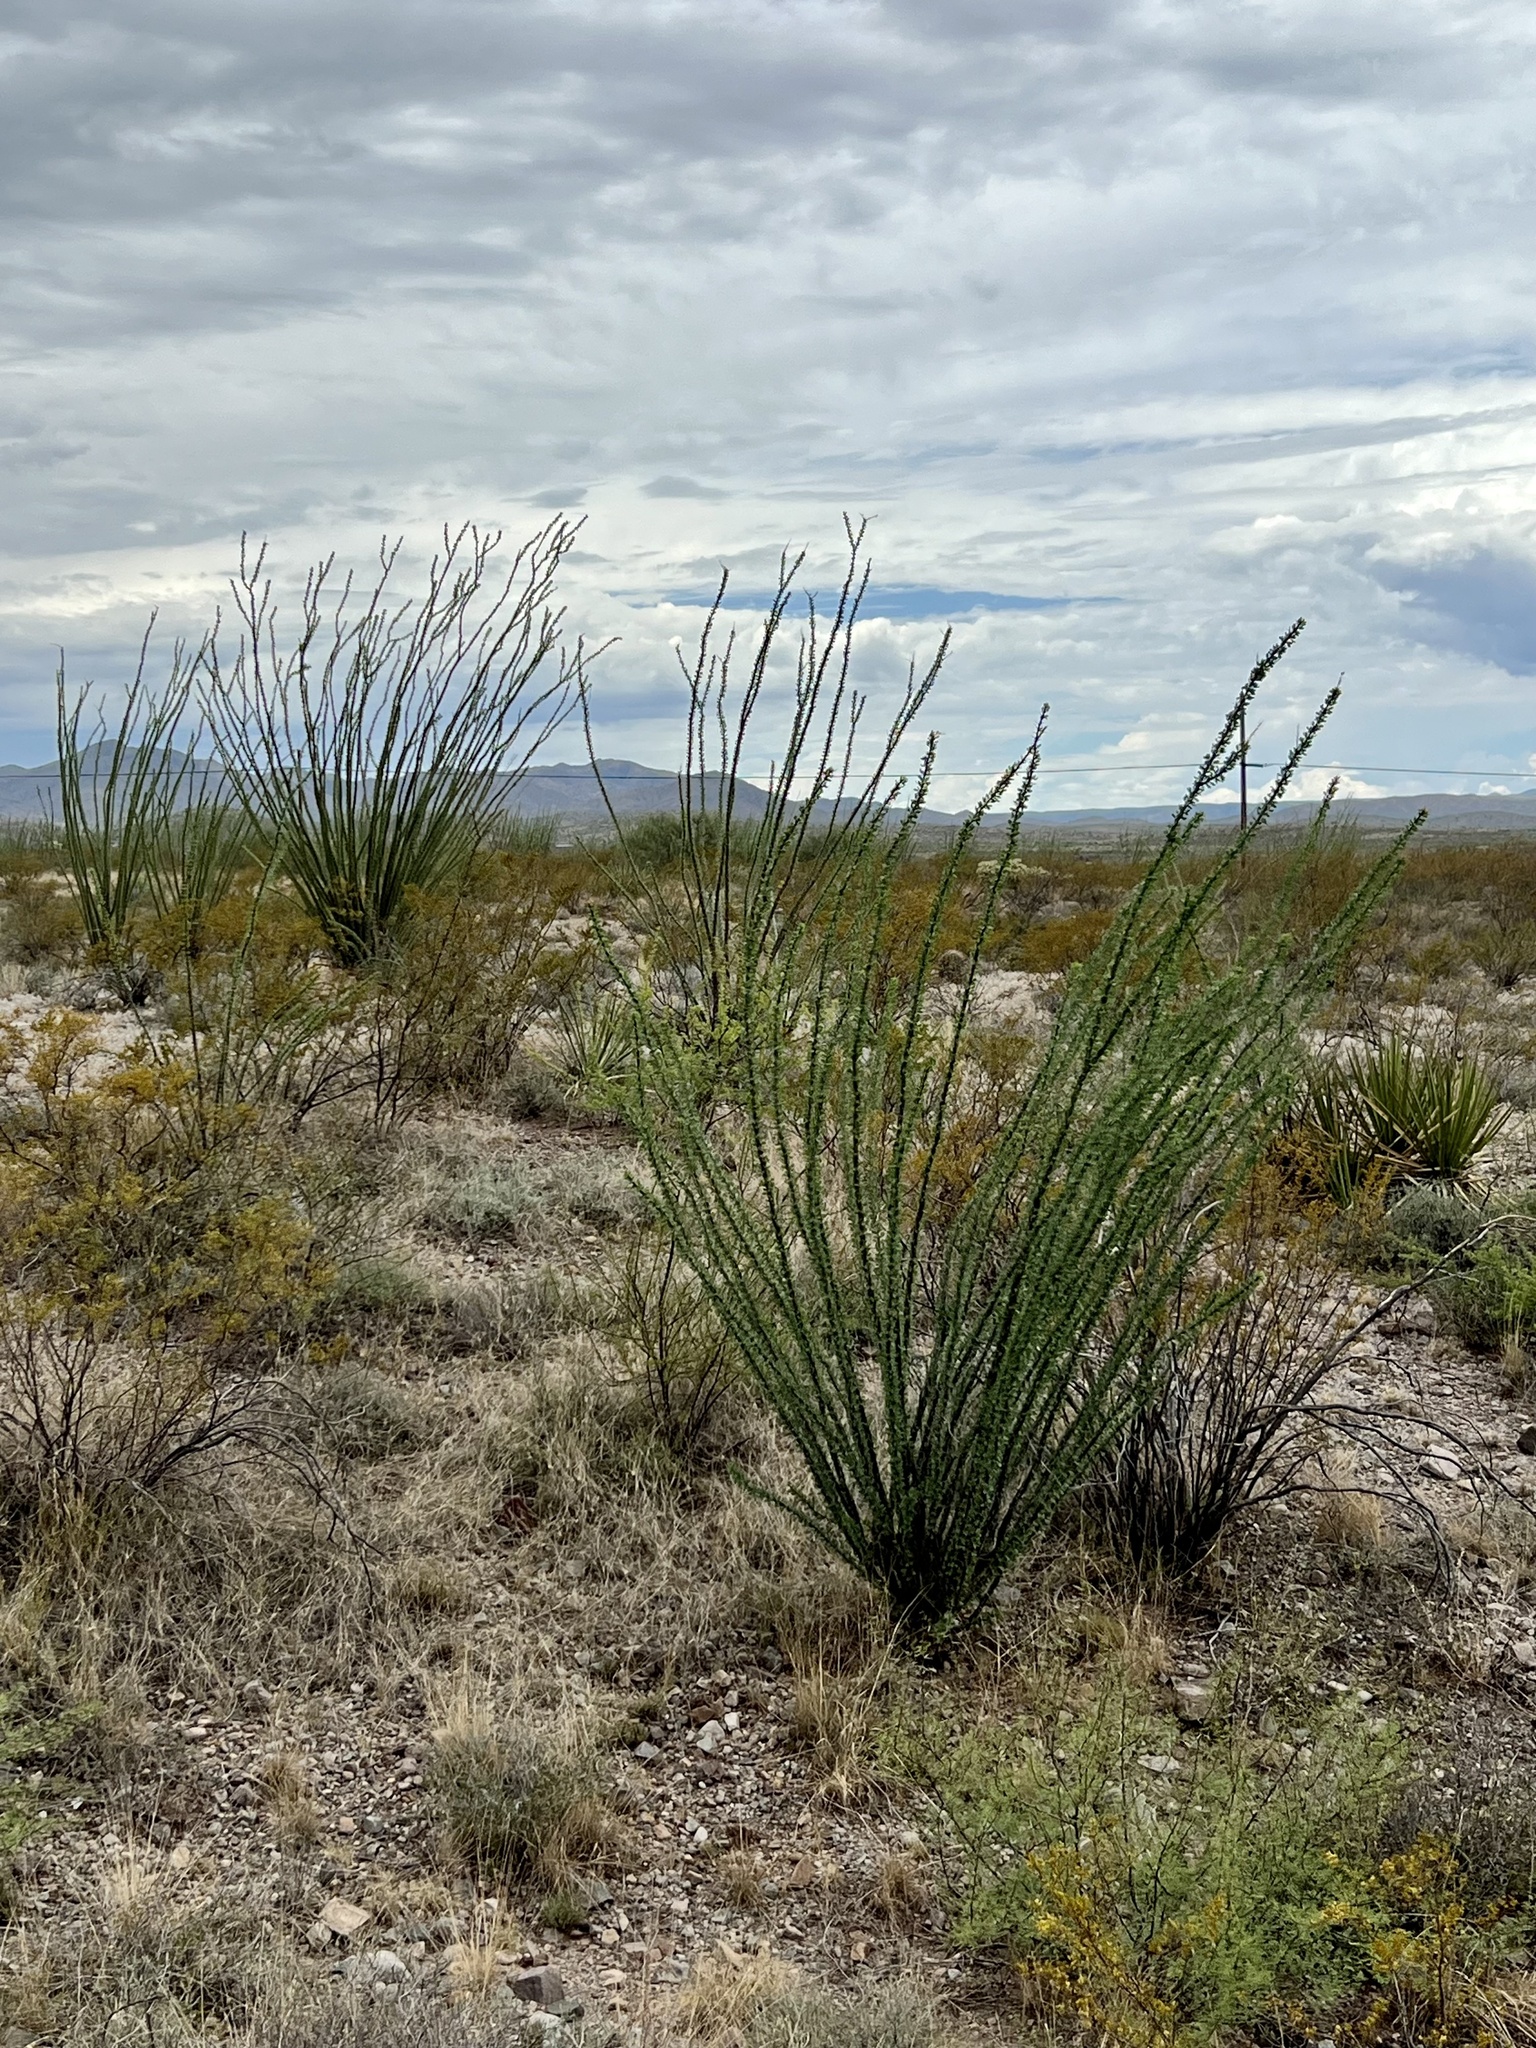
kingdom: Plantae
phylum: Tracheophyta
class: Magnoliopsida
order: Ericales
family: Fouquieriaceae
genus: Fouquieria
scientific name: Fouquieria splendens
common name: Vine-cactus
